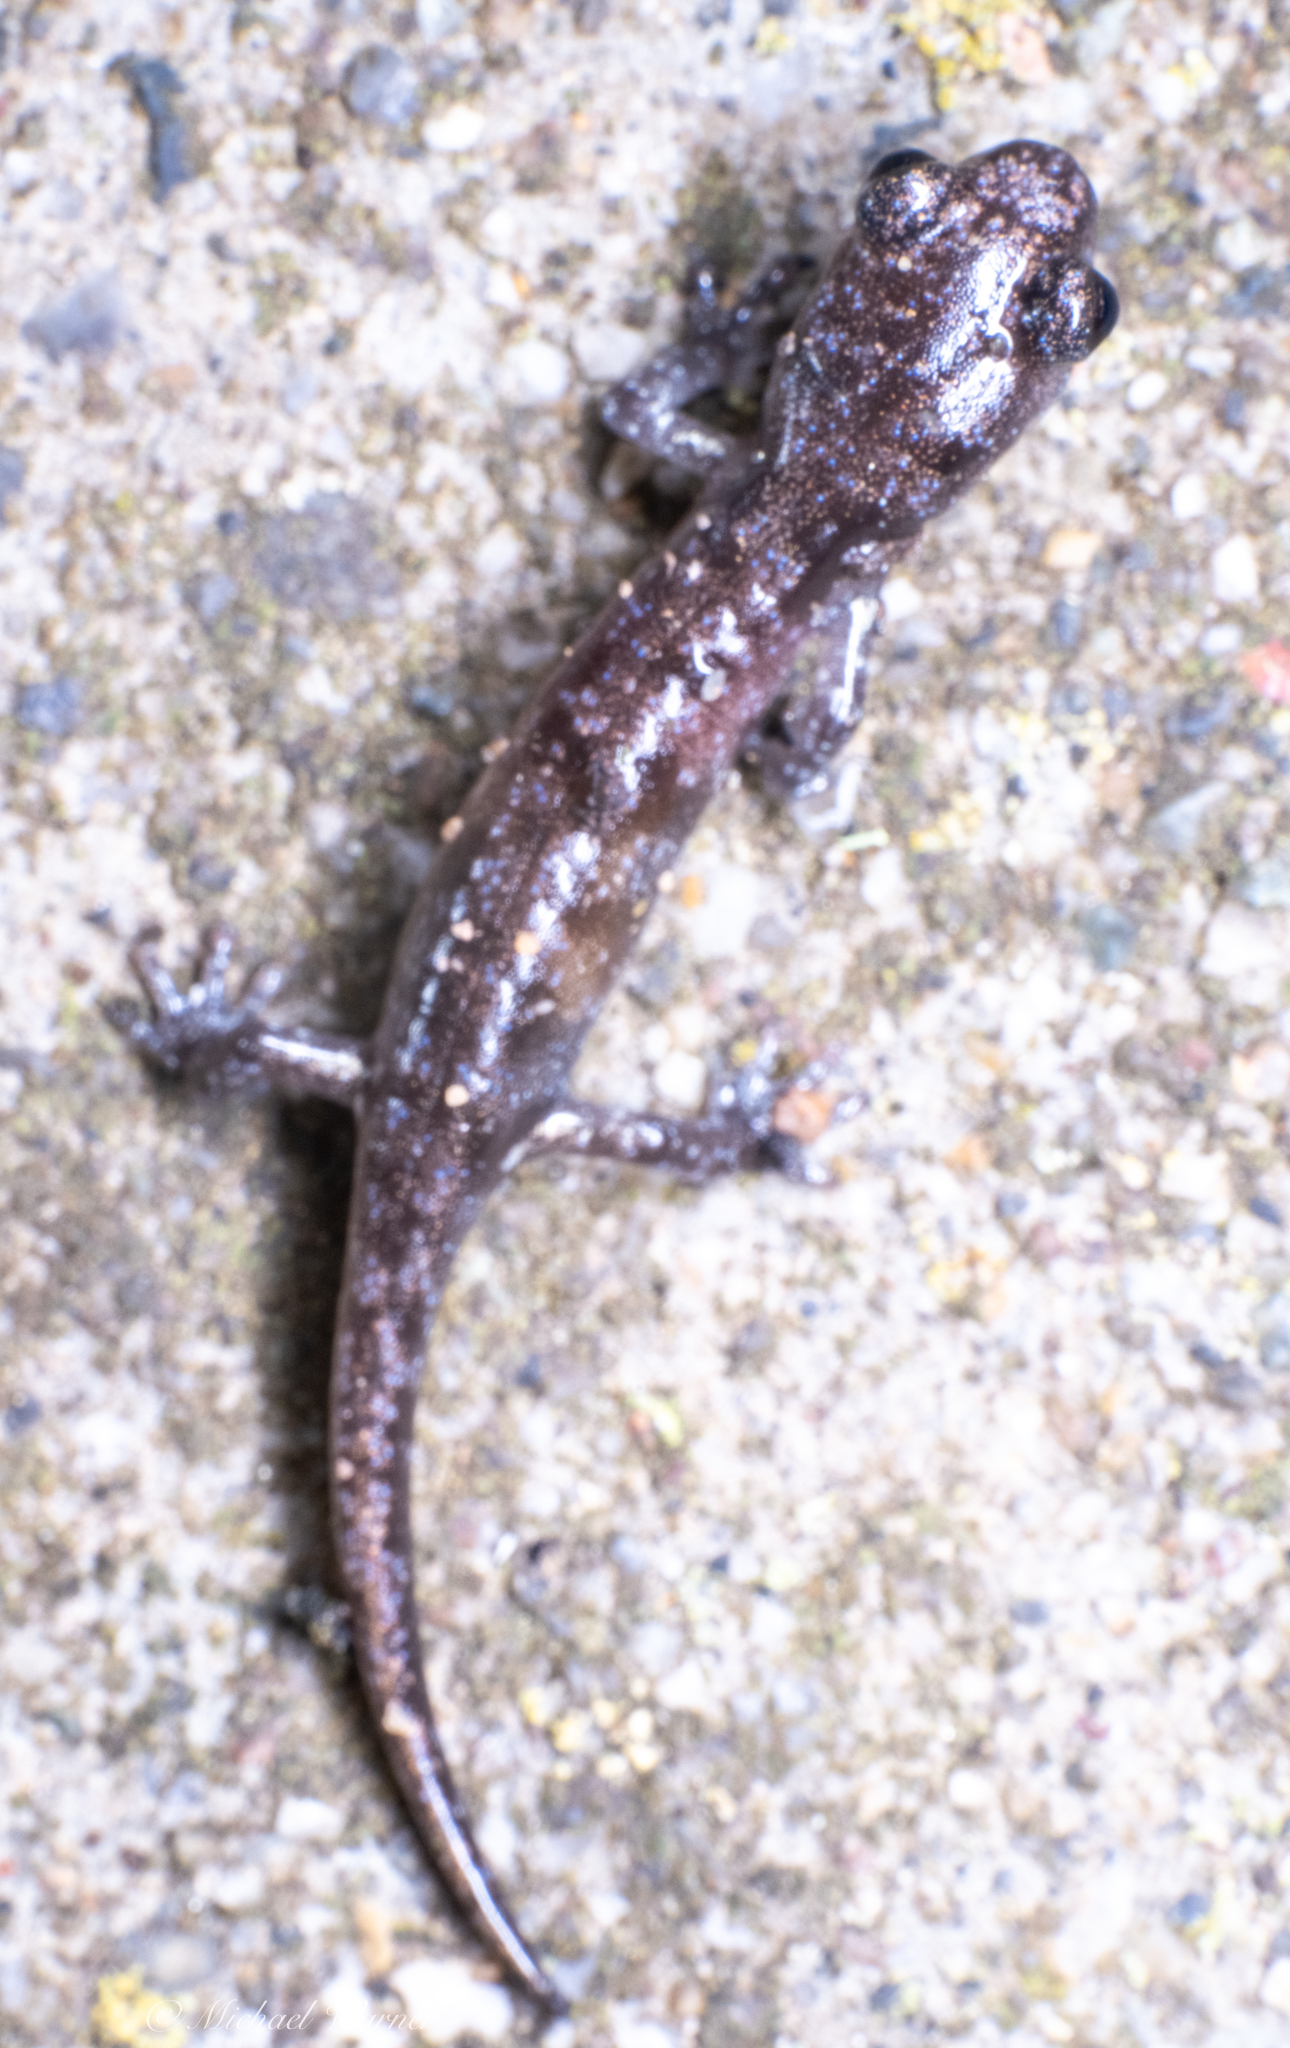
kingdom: Animalia
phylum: Chordata
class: Amphibia
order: Caudata
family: Plethodontidae
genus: Aneides
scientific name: Aneides lugubris
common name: Arboreal salamander
